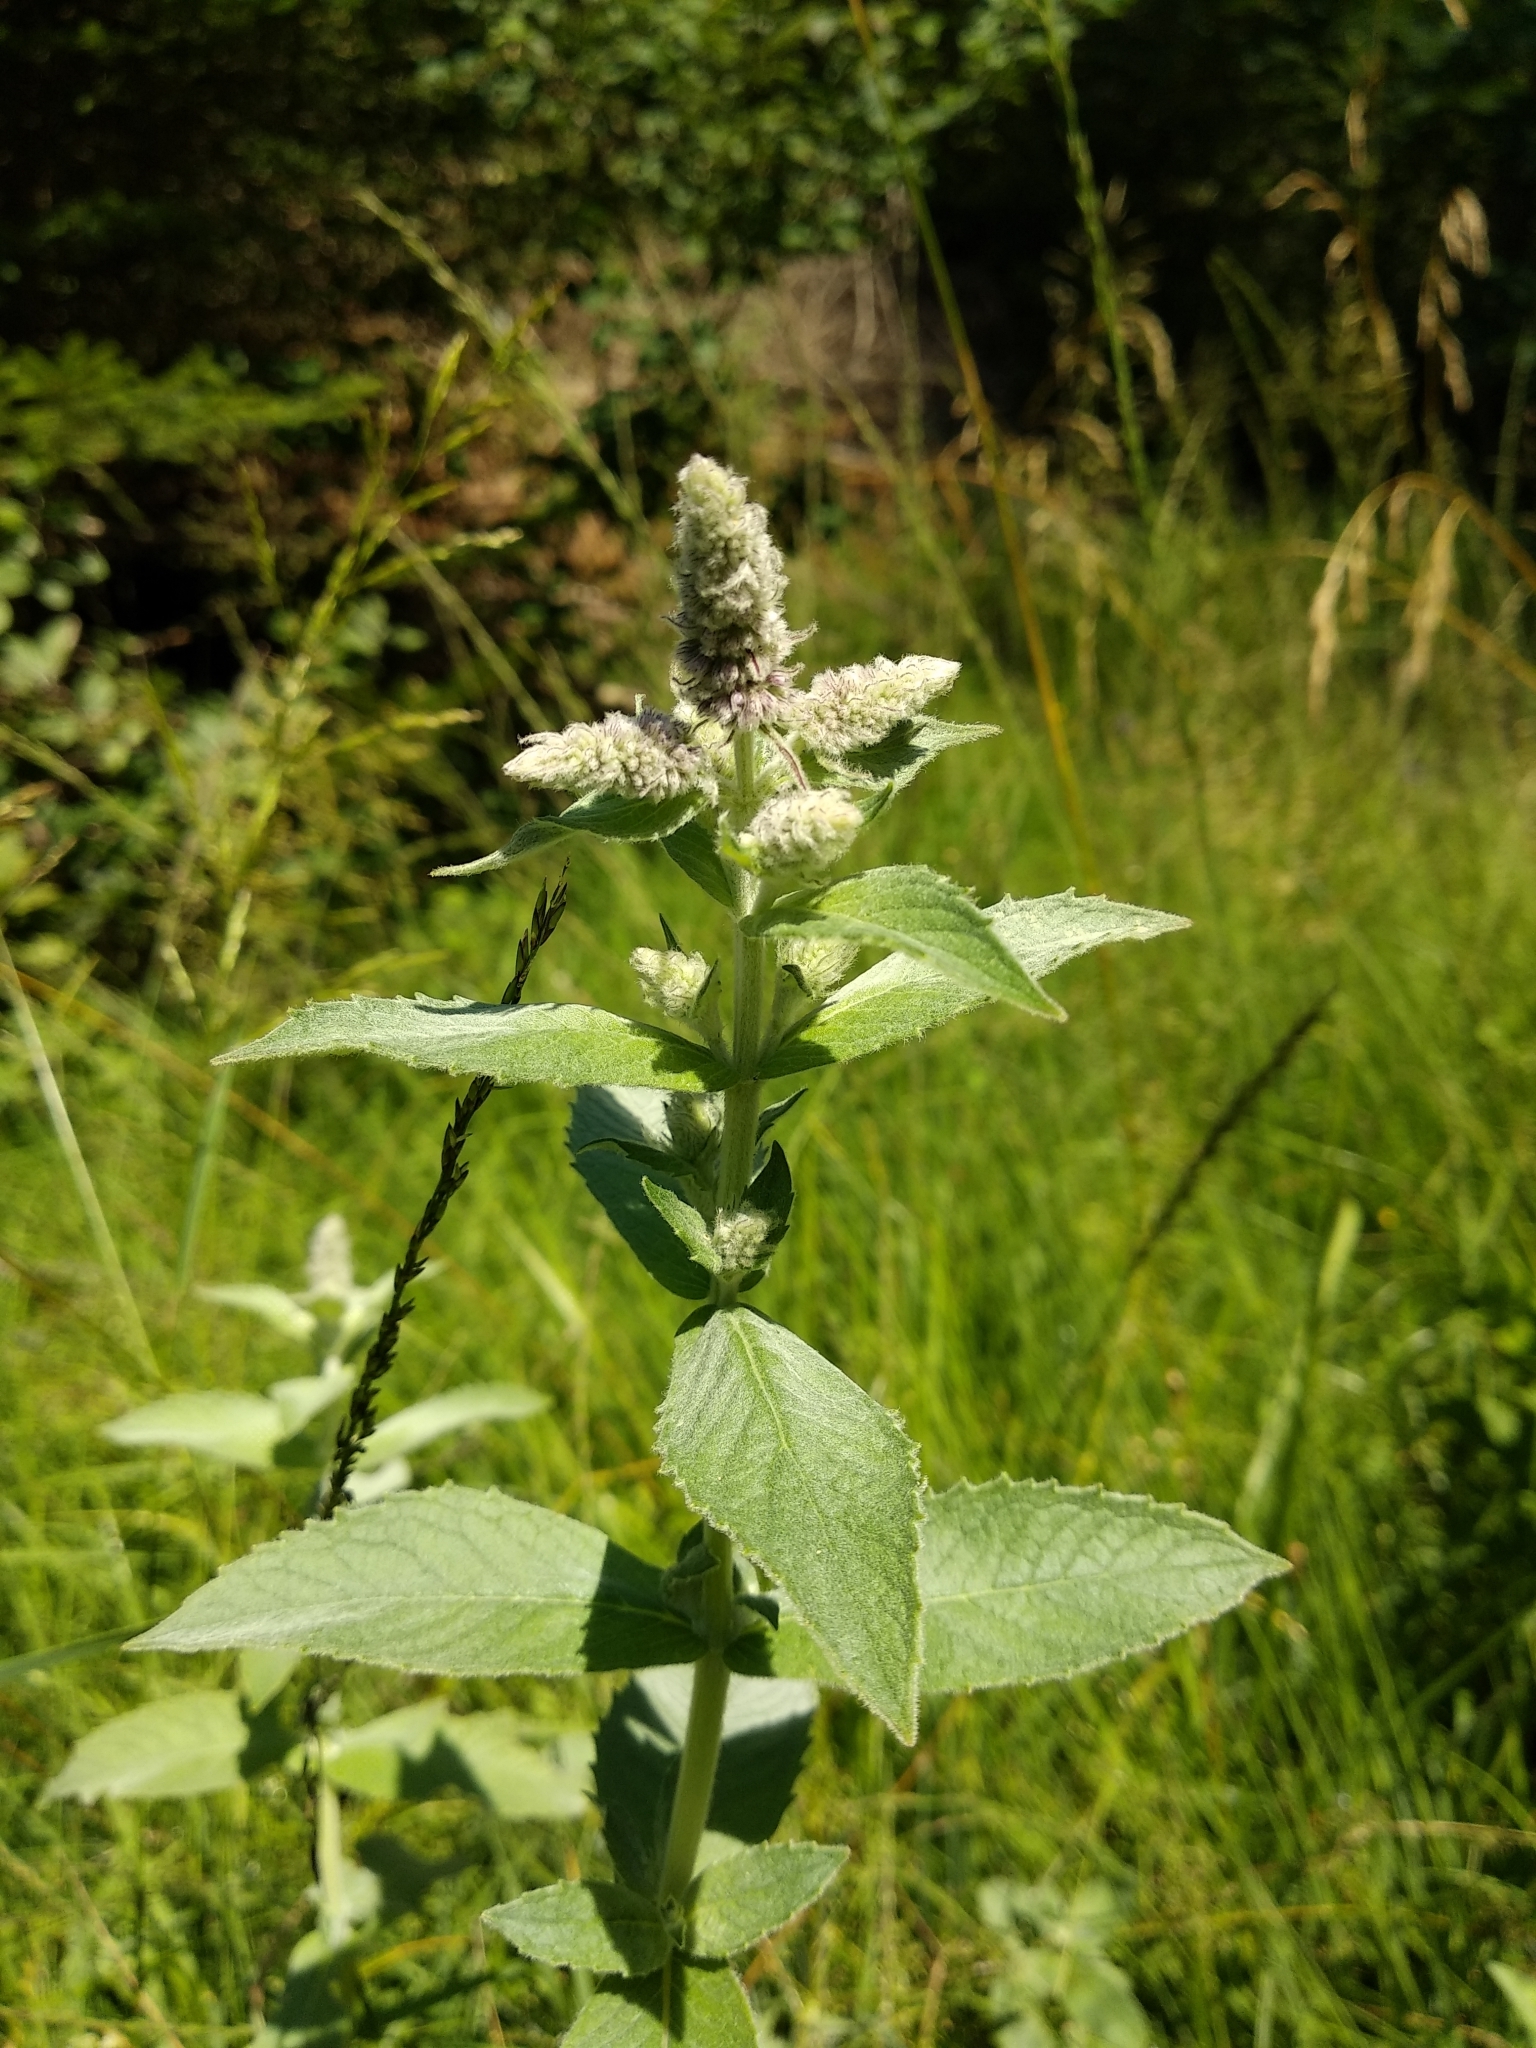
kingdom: Plantae
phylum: Tracheophyta
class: Magnoliopsida
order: Lamiales
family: Lamiaceae
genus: Mentha
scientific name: Mentha longifolia
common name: Horse mint
